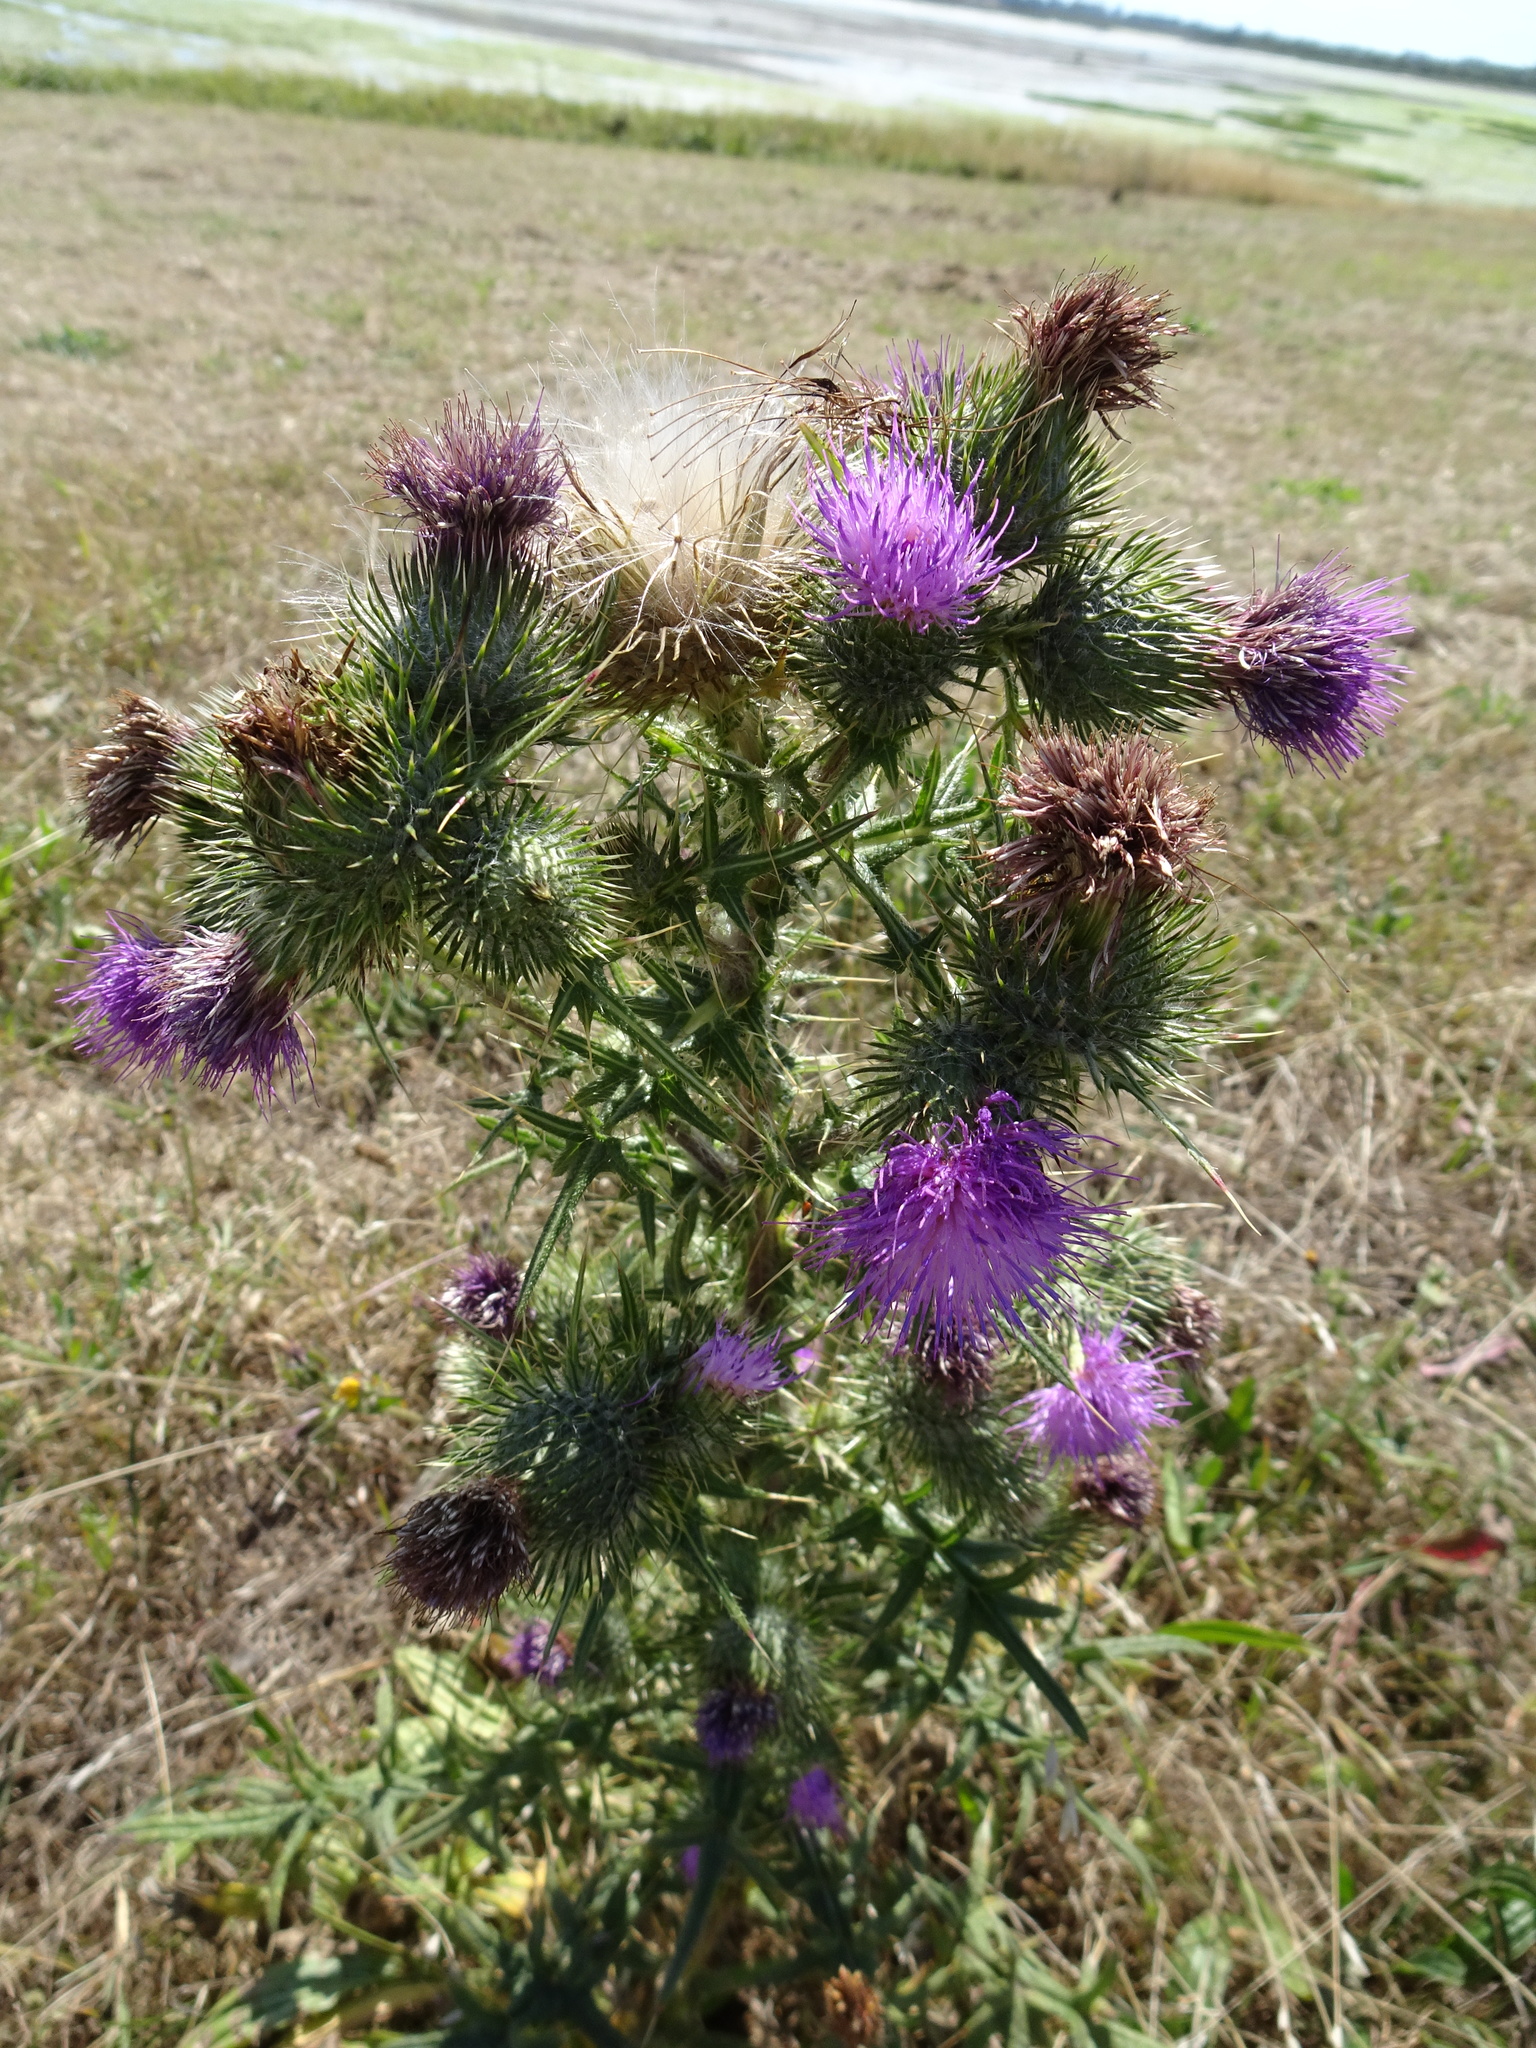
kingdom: Plantae
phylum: Tracheophyta
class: Magnoliopsida
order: Asterales
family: Asteraceae
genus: Cirsium
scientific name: Cirsium vulgare
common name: Bull thistle
